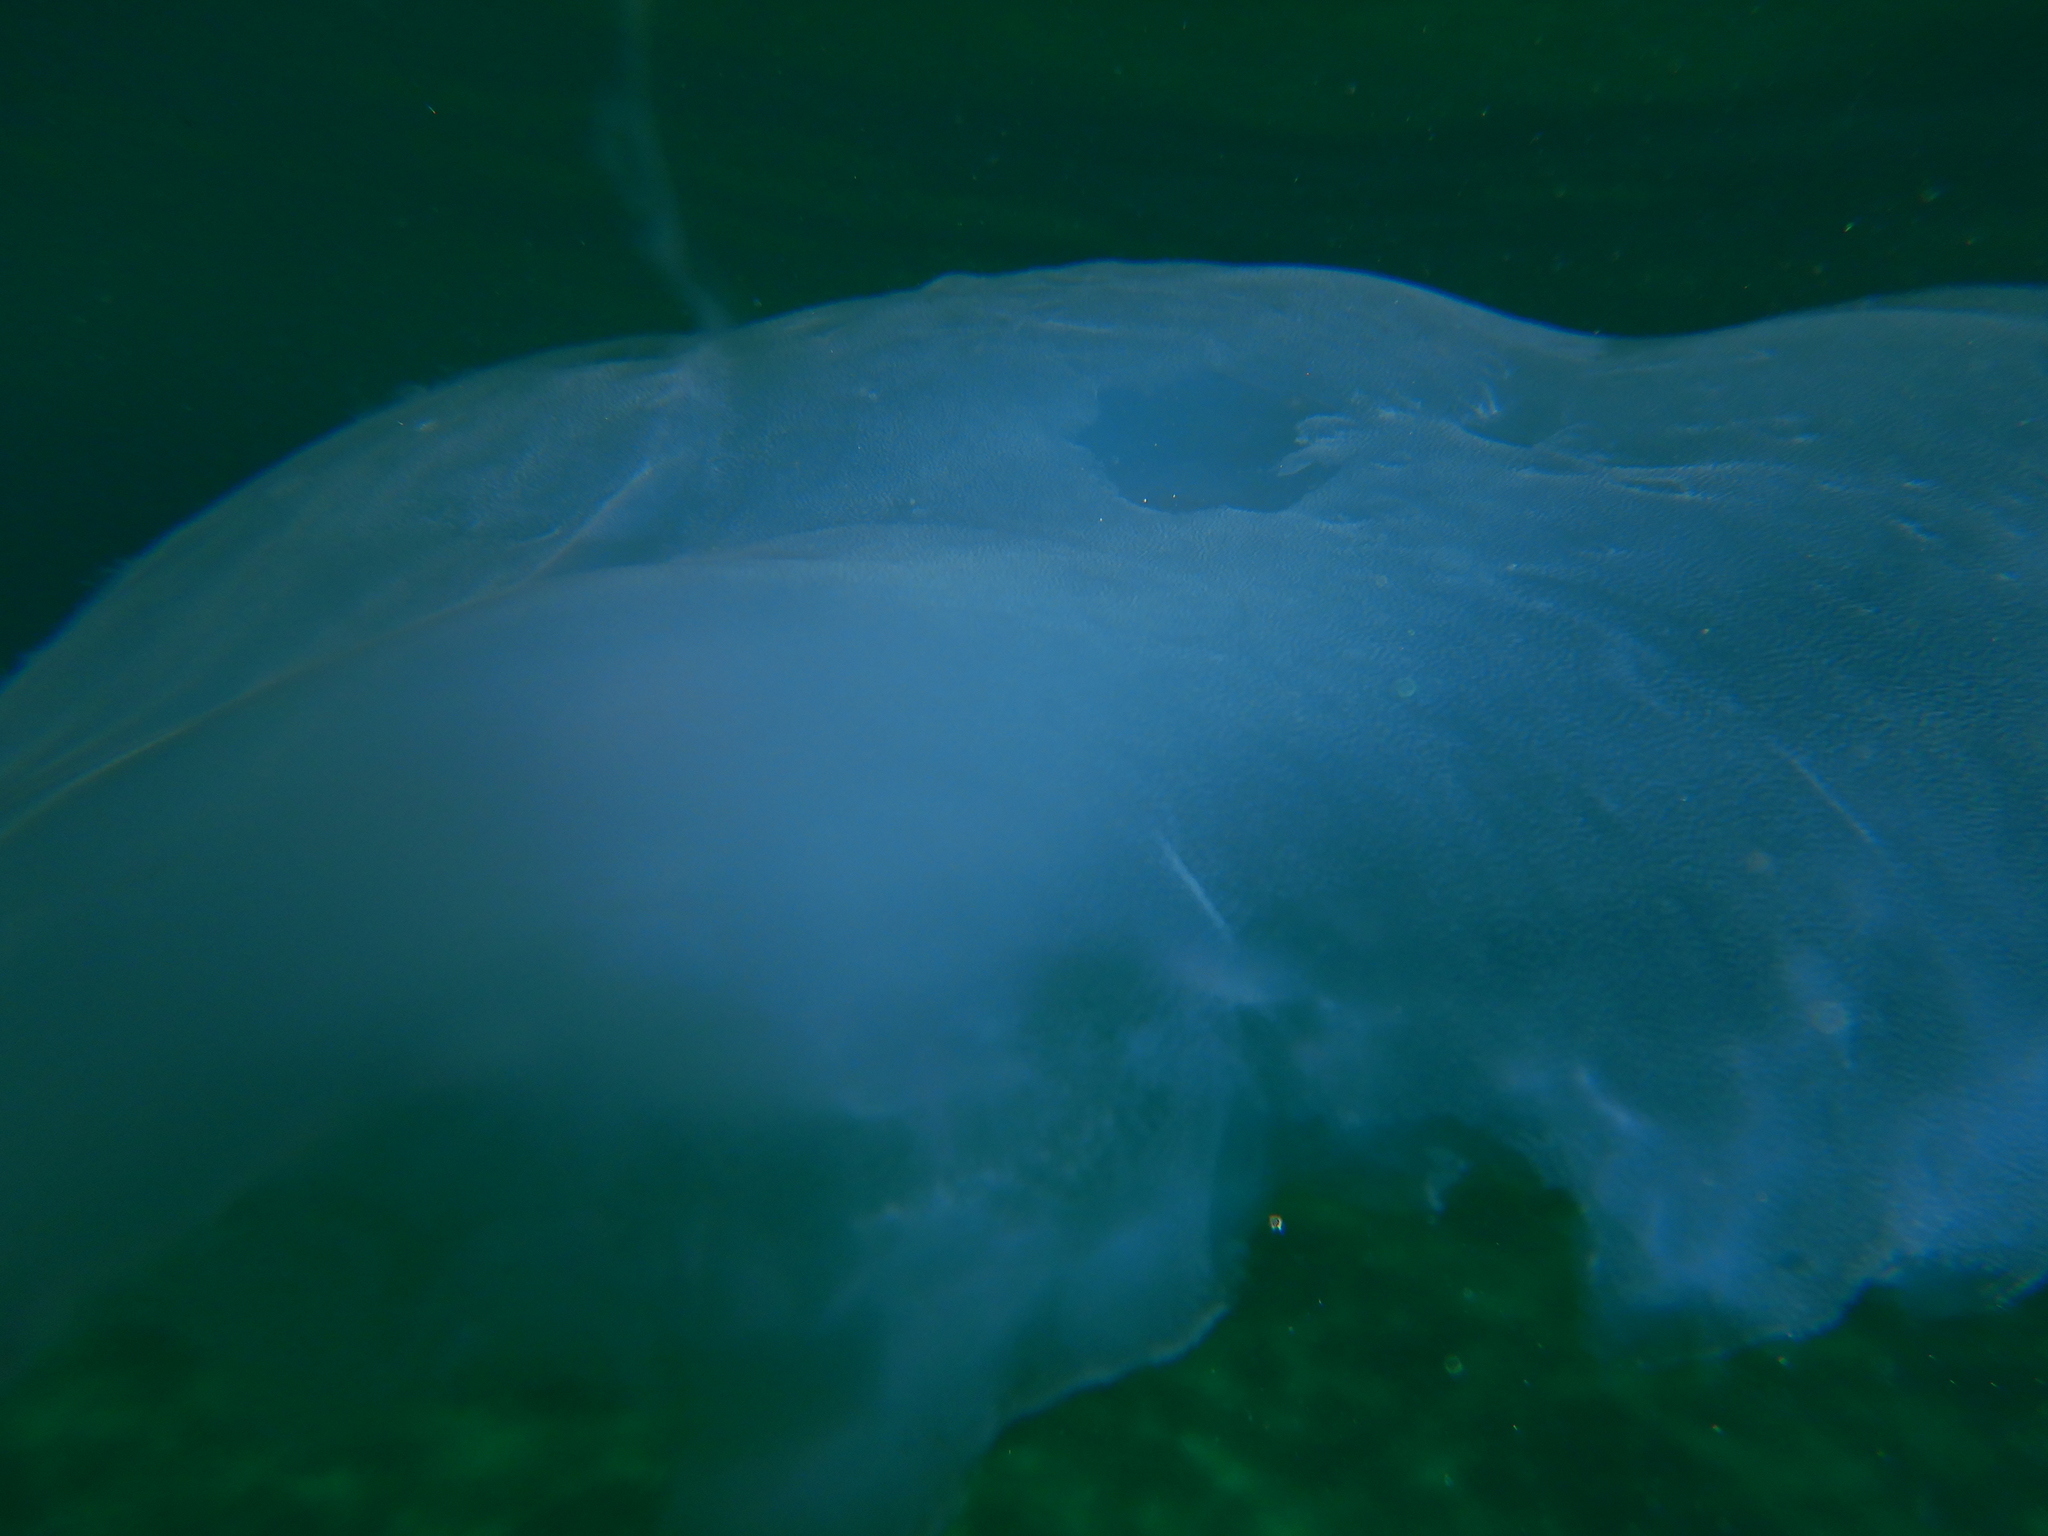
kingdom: Animalia
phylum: Cnidaria
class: Scyphozoa
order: Semaeostomeae
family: Ulmaridae
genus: Aurelia
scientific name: Aurelia solida
